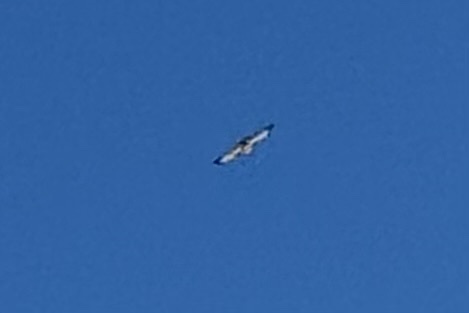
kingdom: Animalia
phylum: Chordata
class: Aves
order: Accipitriformes
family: Accipitridae
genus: Buteo
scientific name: Buteo jamaicensis
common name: Red-tailed hawk
